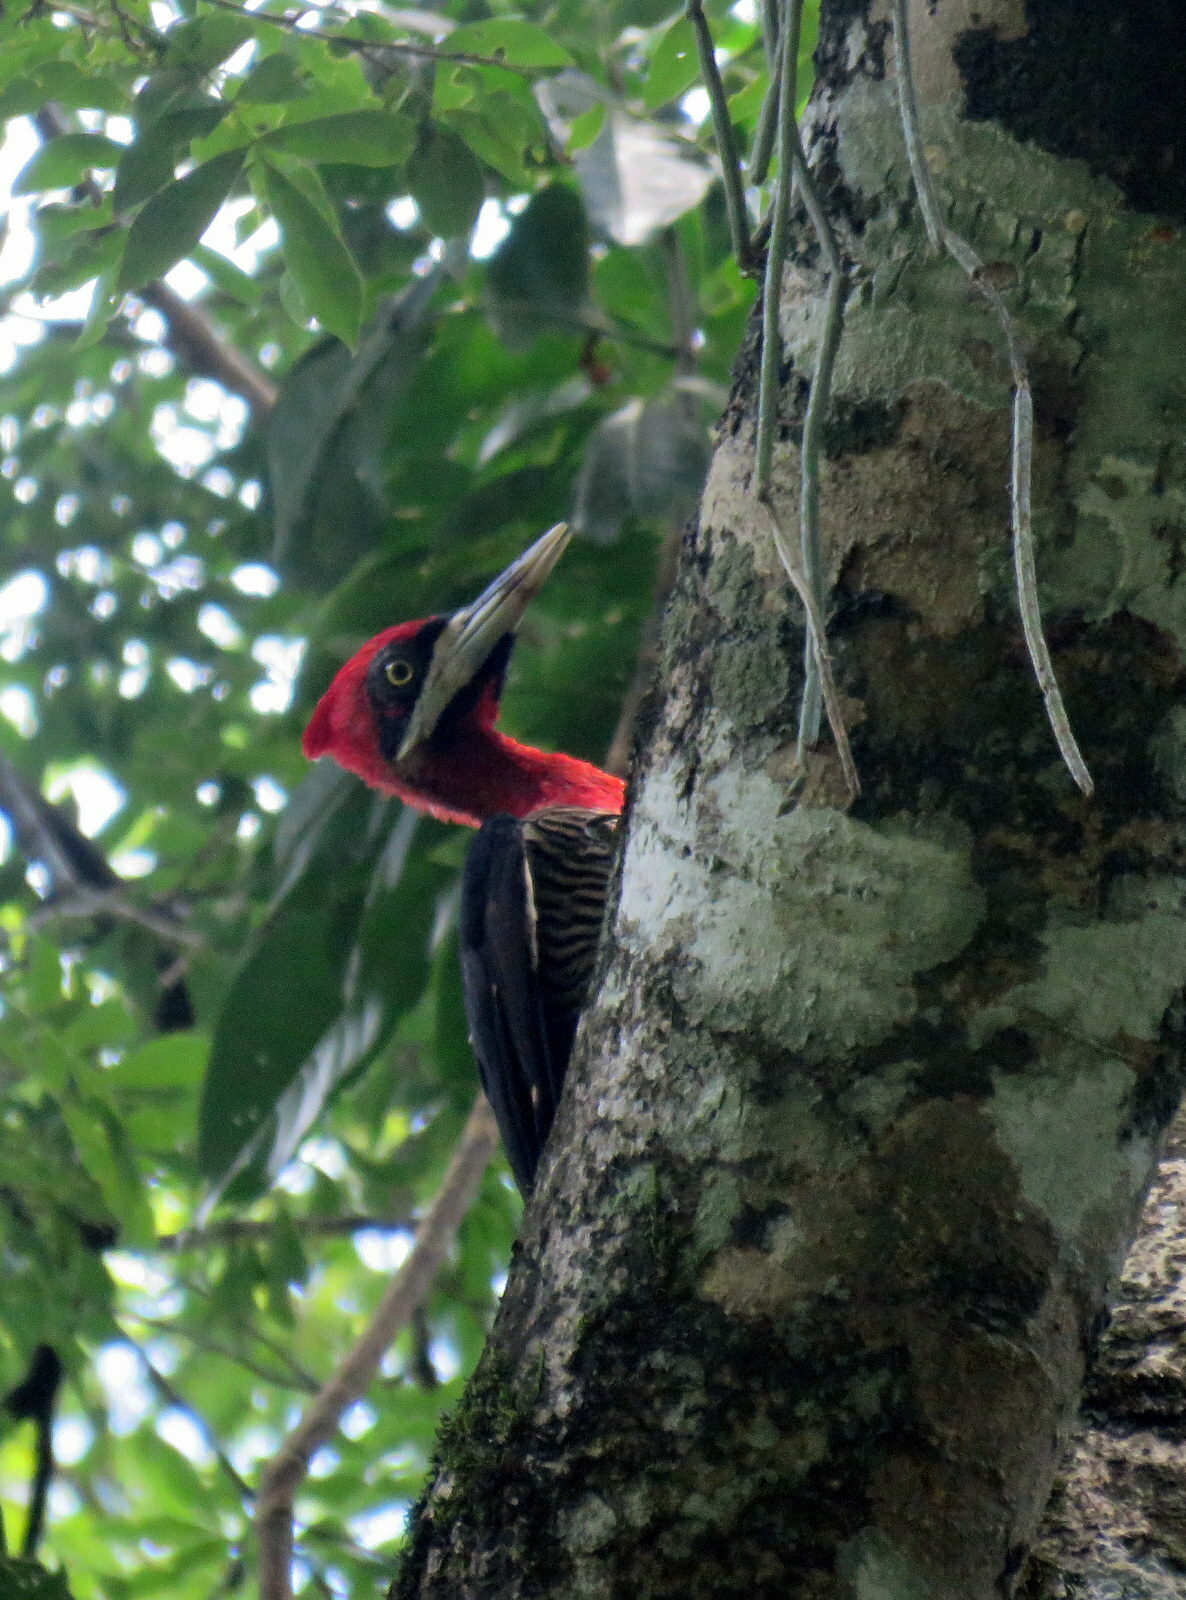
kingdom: Animalia
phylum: Chordata
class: Aves
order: Piciformes
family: Picidae
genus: Campephilus
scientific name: Campephilus robustus
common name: Robust woodpecker
